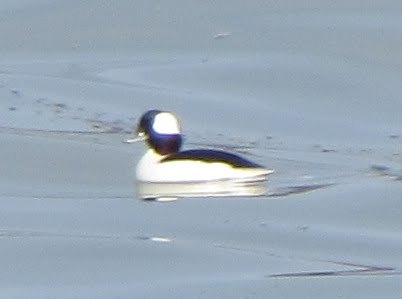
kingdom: Animalia
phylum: Chordata
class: Aves
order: Anseriformes
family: Anatidae
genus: Bucephala
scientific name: Bucephala albeola
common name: Bufflehead
